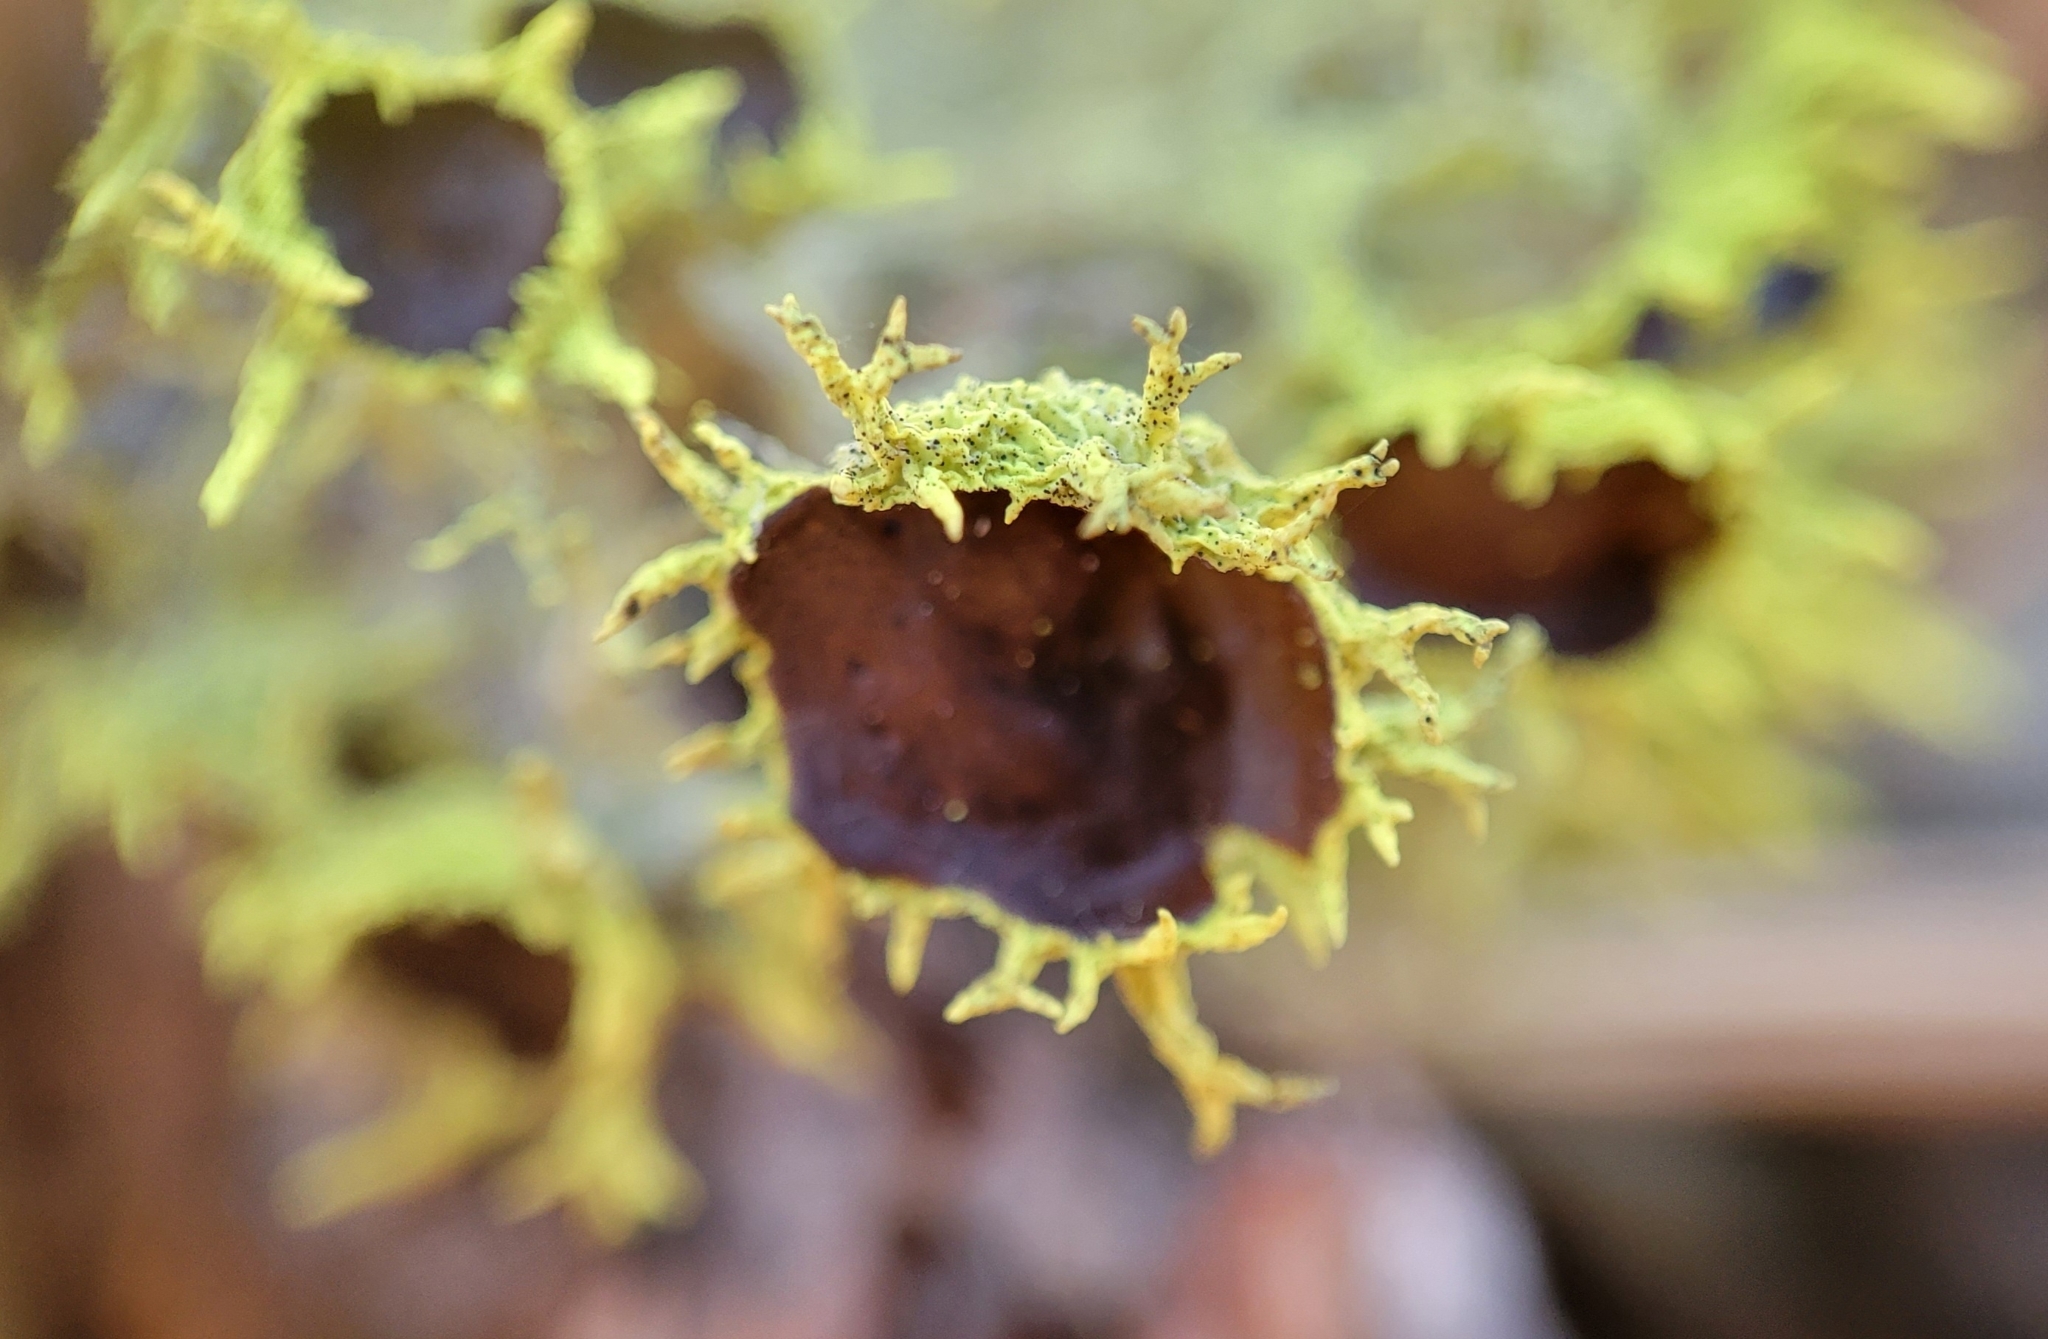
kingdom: Fungi
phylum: Ascomycota
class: Lecanoromycetes
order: Lecanorales
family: Parmeliaceae
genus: Letharia
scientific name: Letharia columbiana
